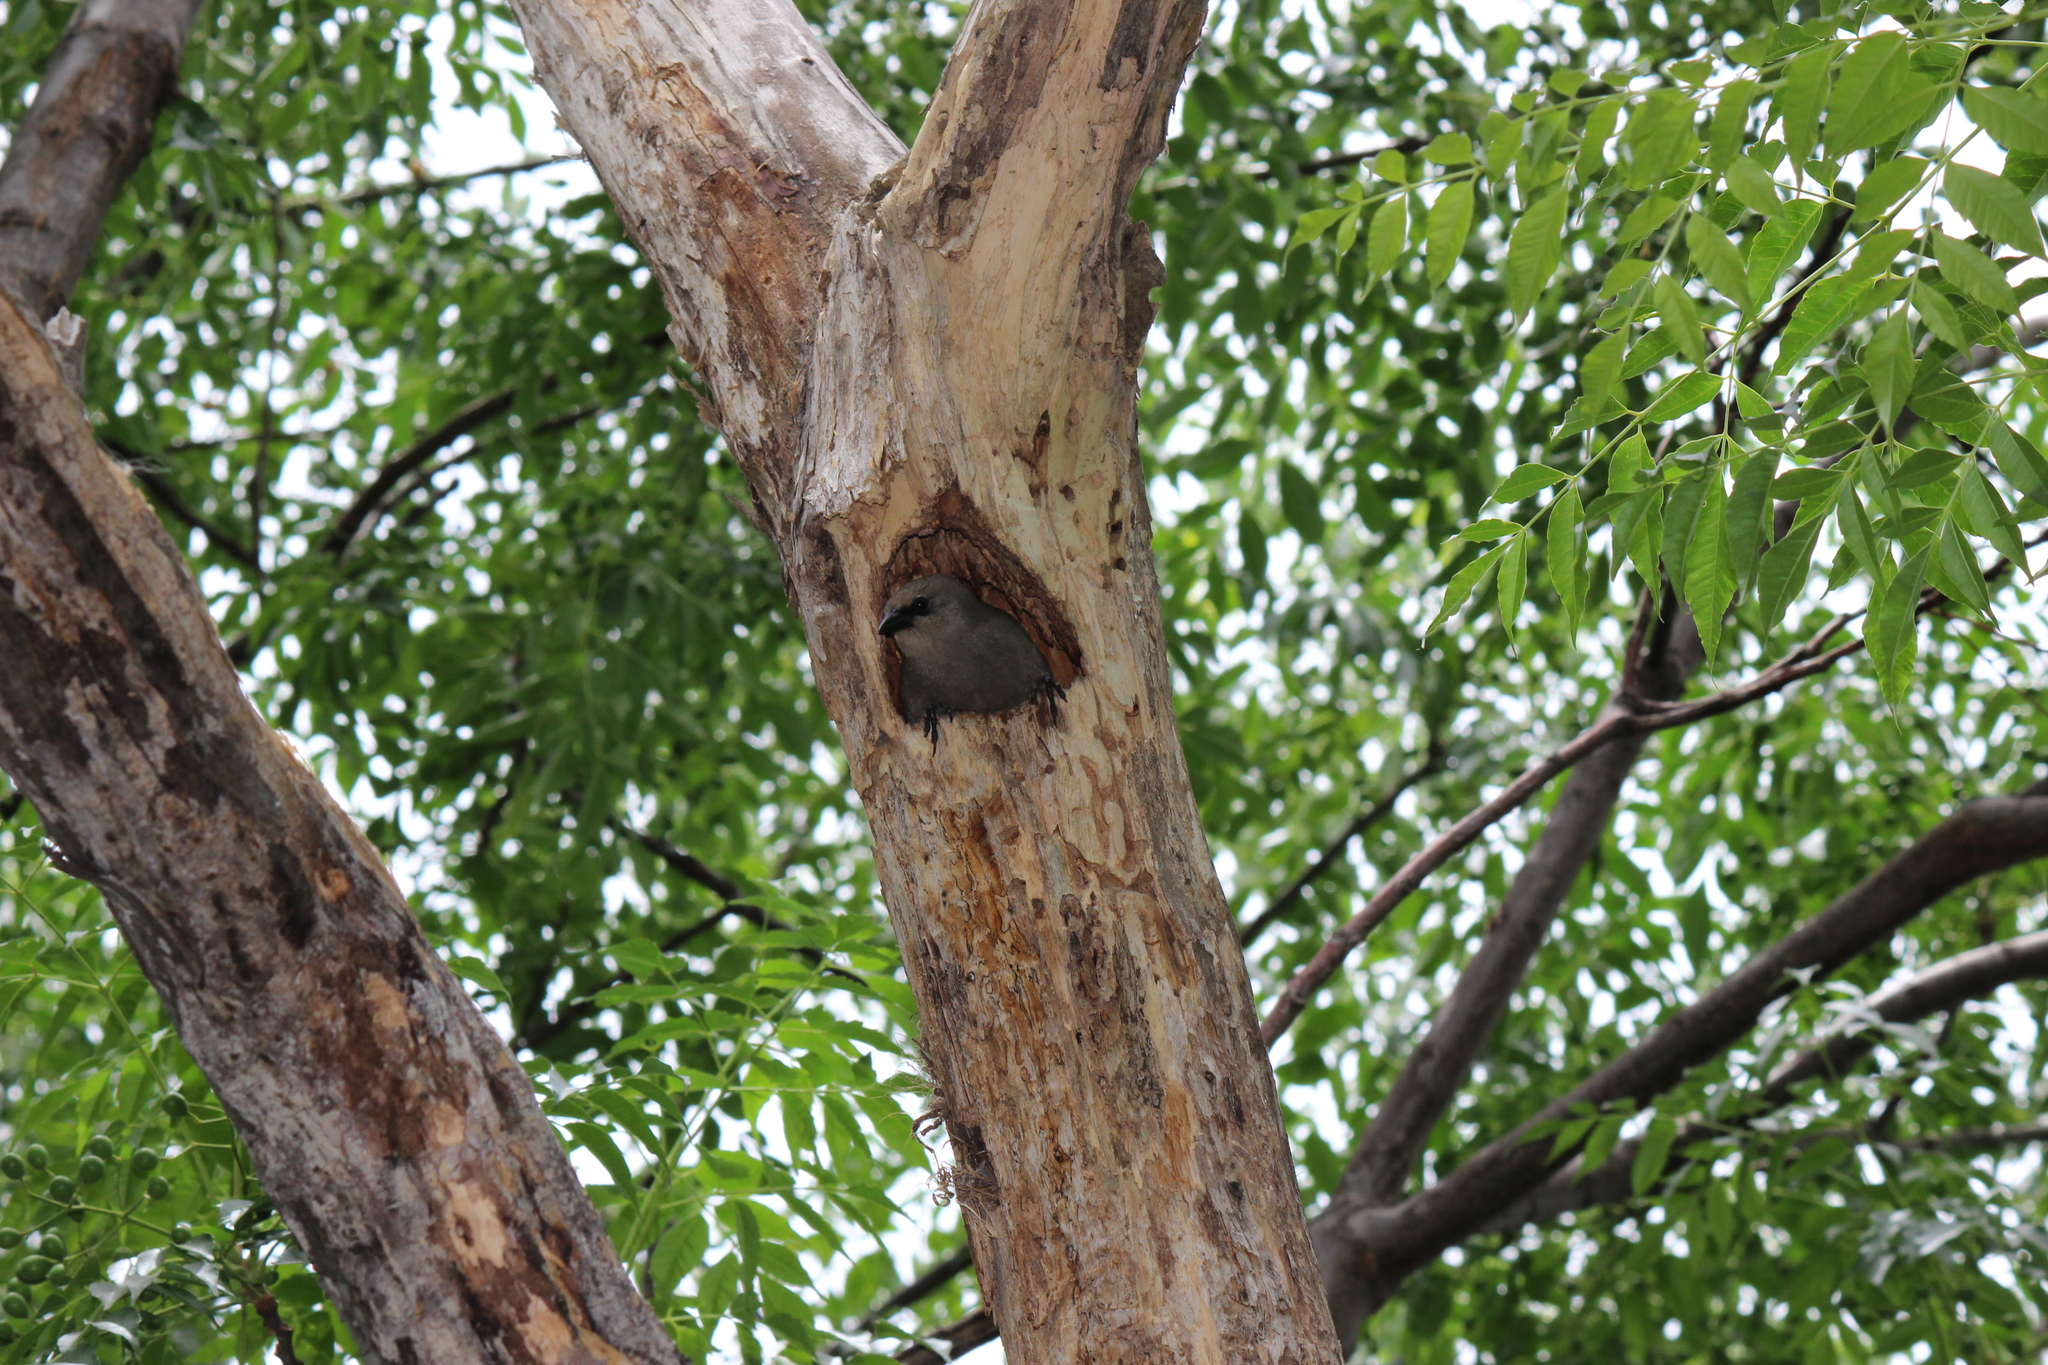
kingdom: Animalia
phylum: Chordata
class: Aves
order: Passeriformes
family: Icteridae
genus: Agelaioides
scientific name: Agelaioides badius
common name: Baywing
